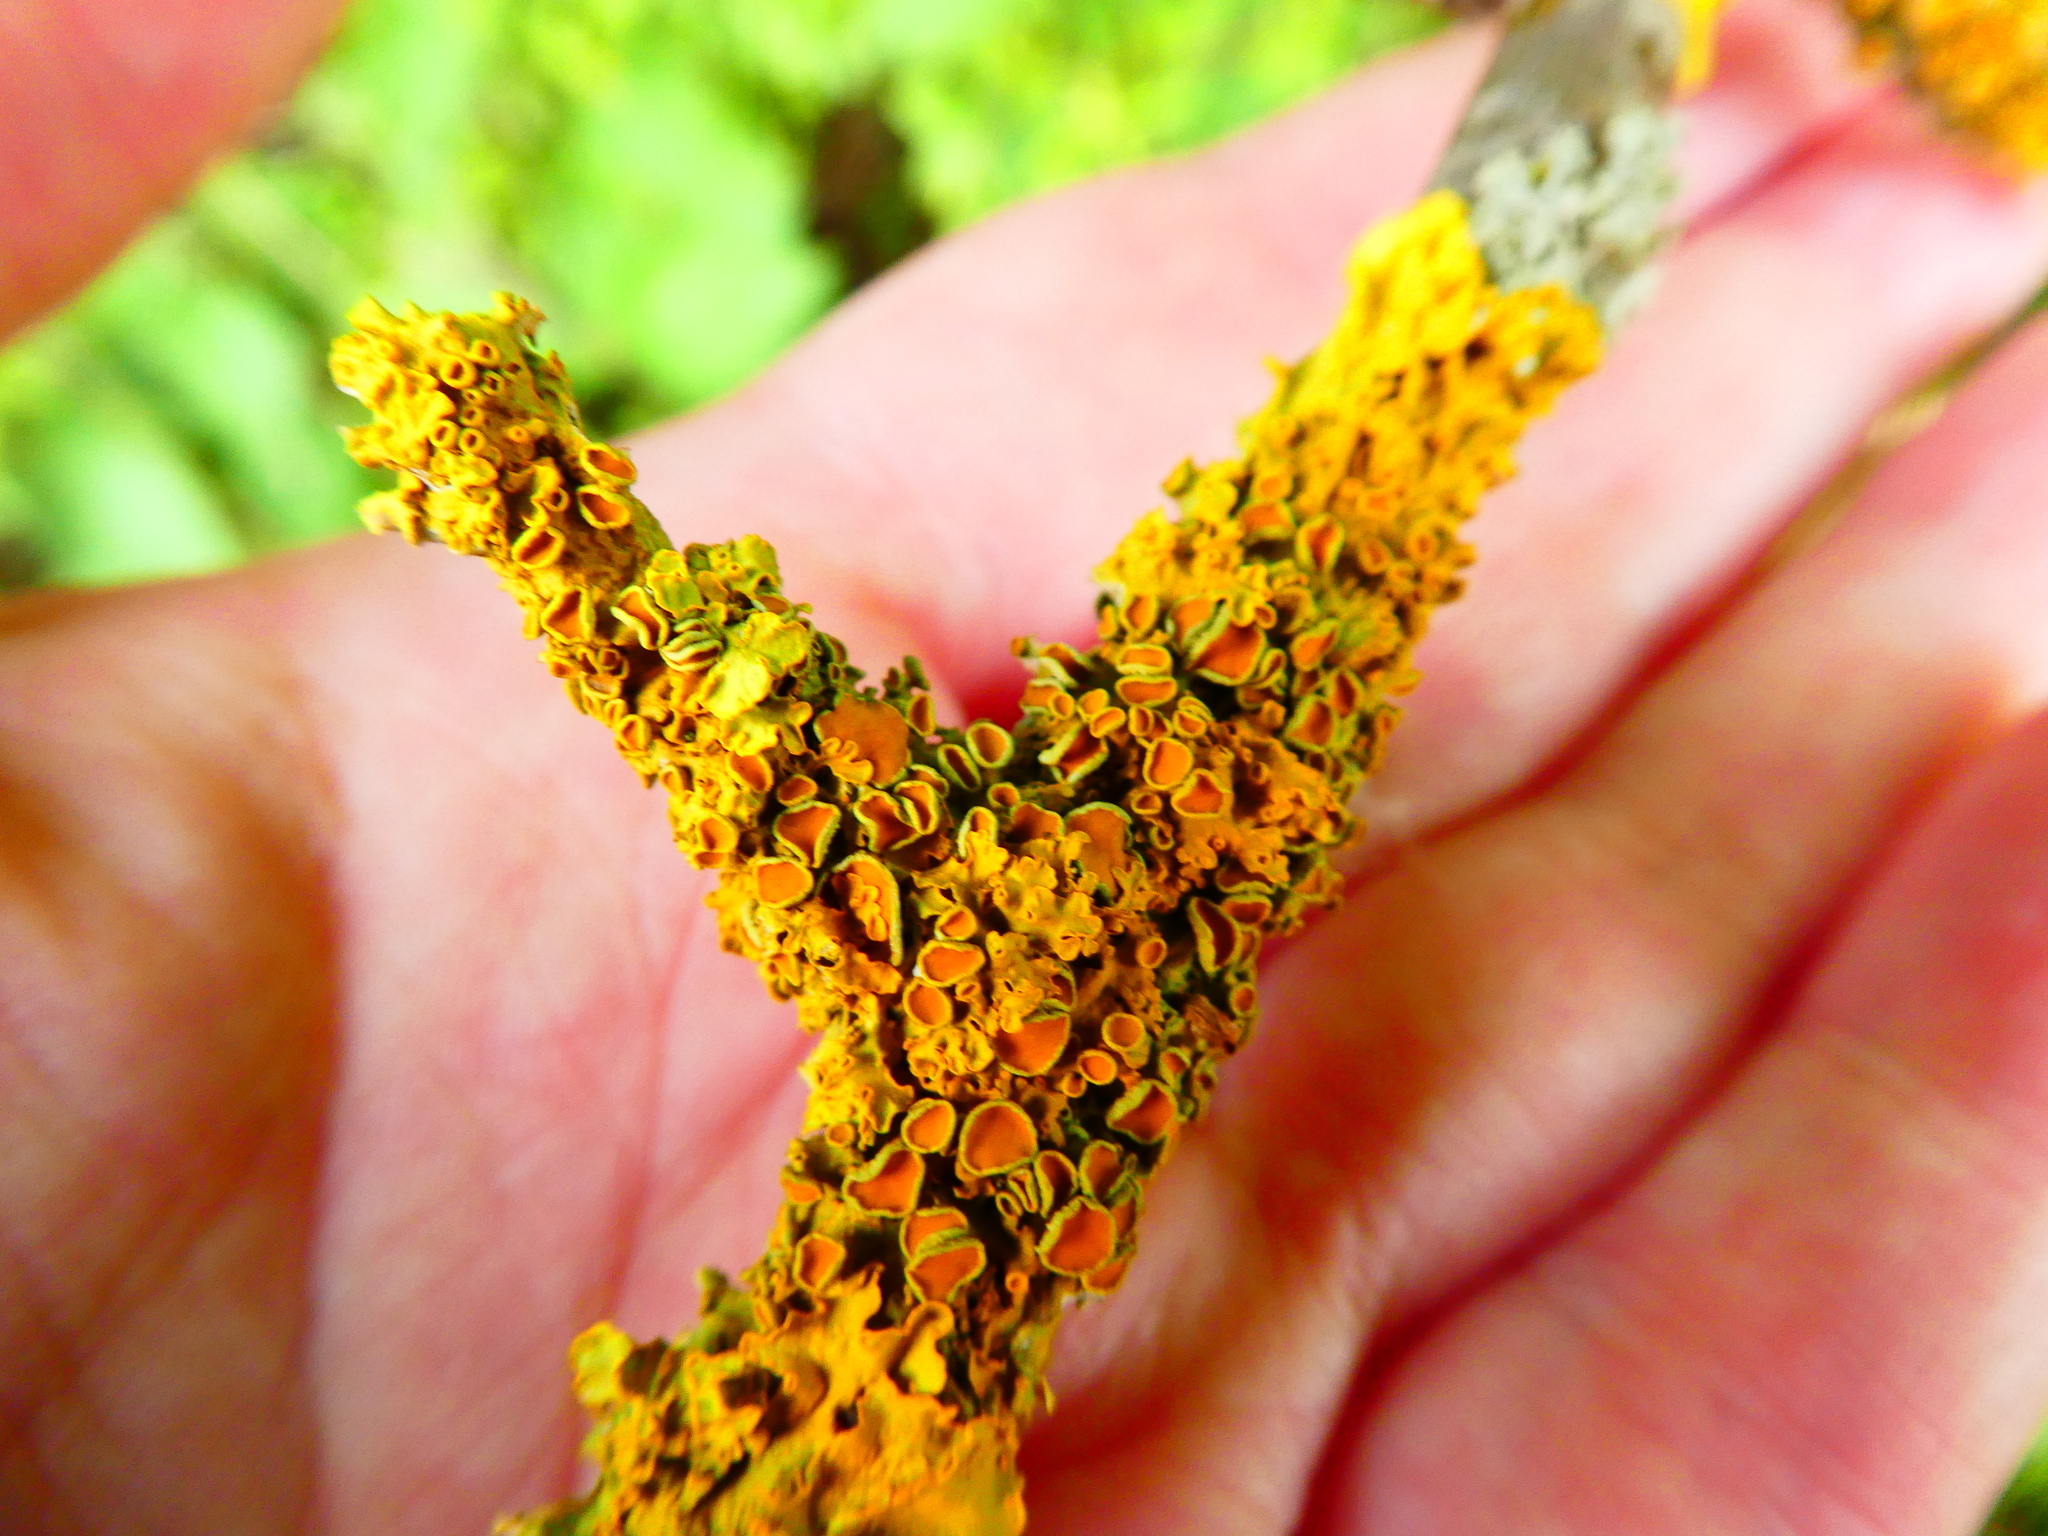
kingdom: Fungi
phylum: Ascomycota
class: Lecanoromycetes
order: Teloschistales
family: Teloschistaceae
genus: Xanthoria
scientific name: Xanthoria parietina
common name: Common orange lichen
